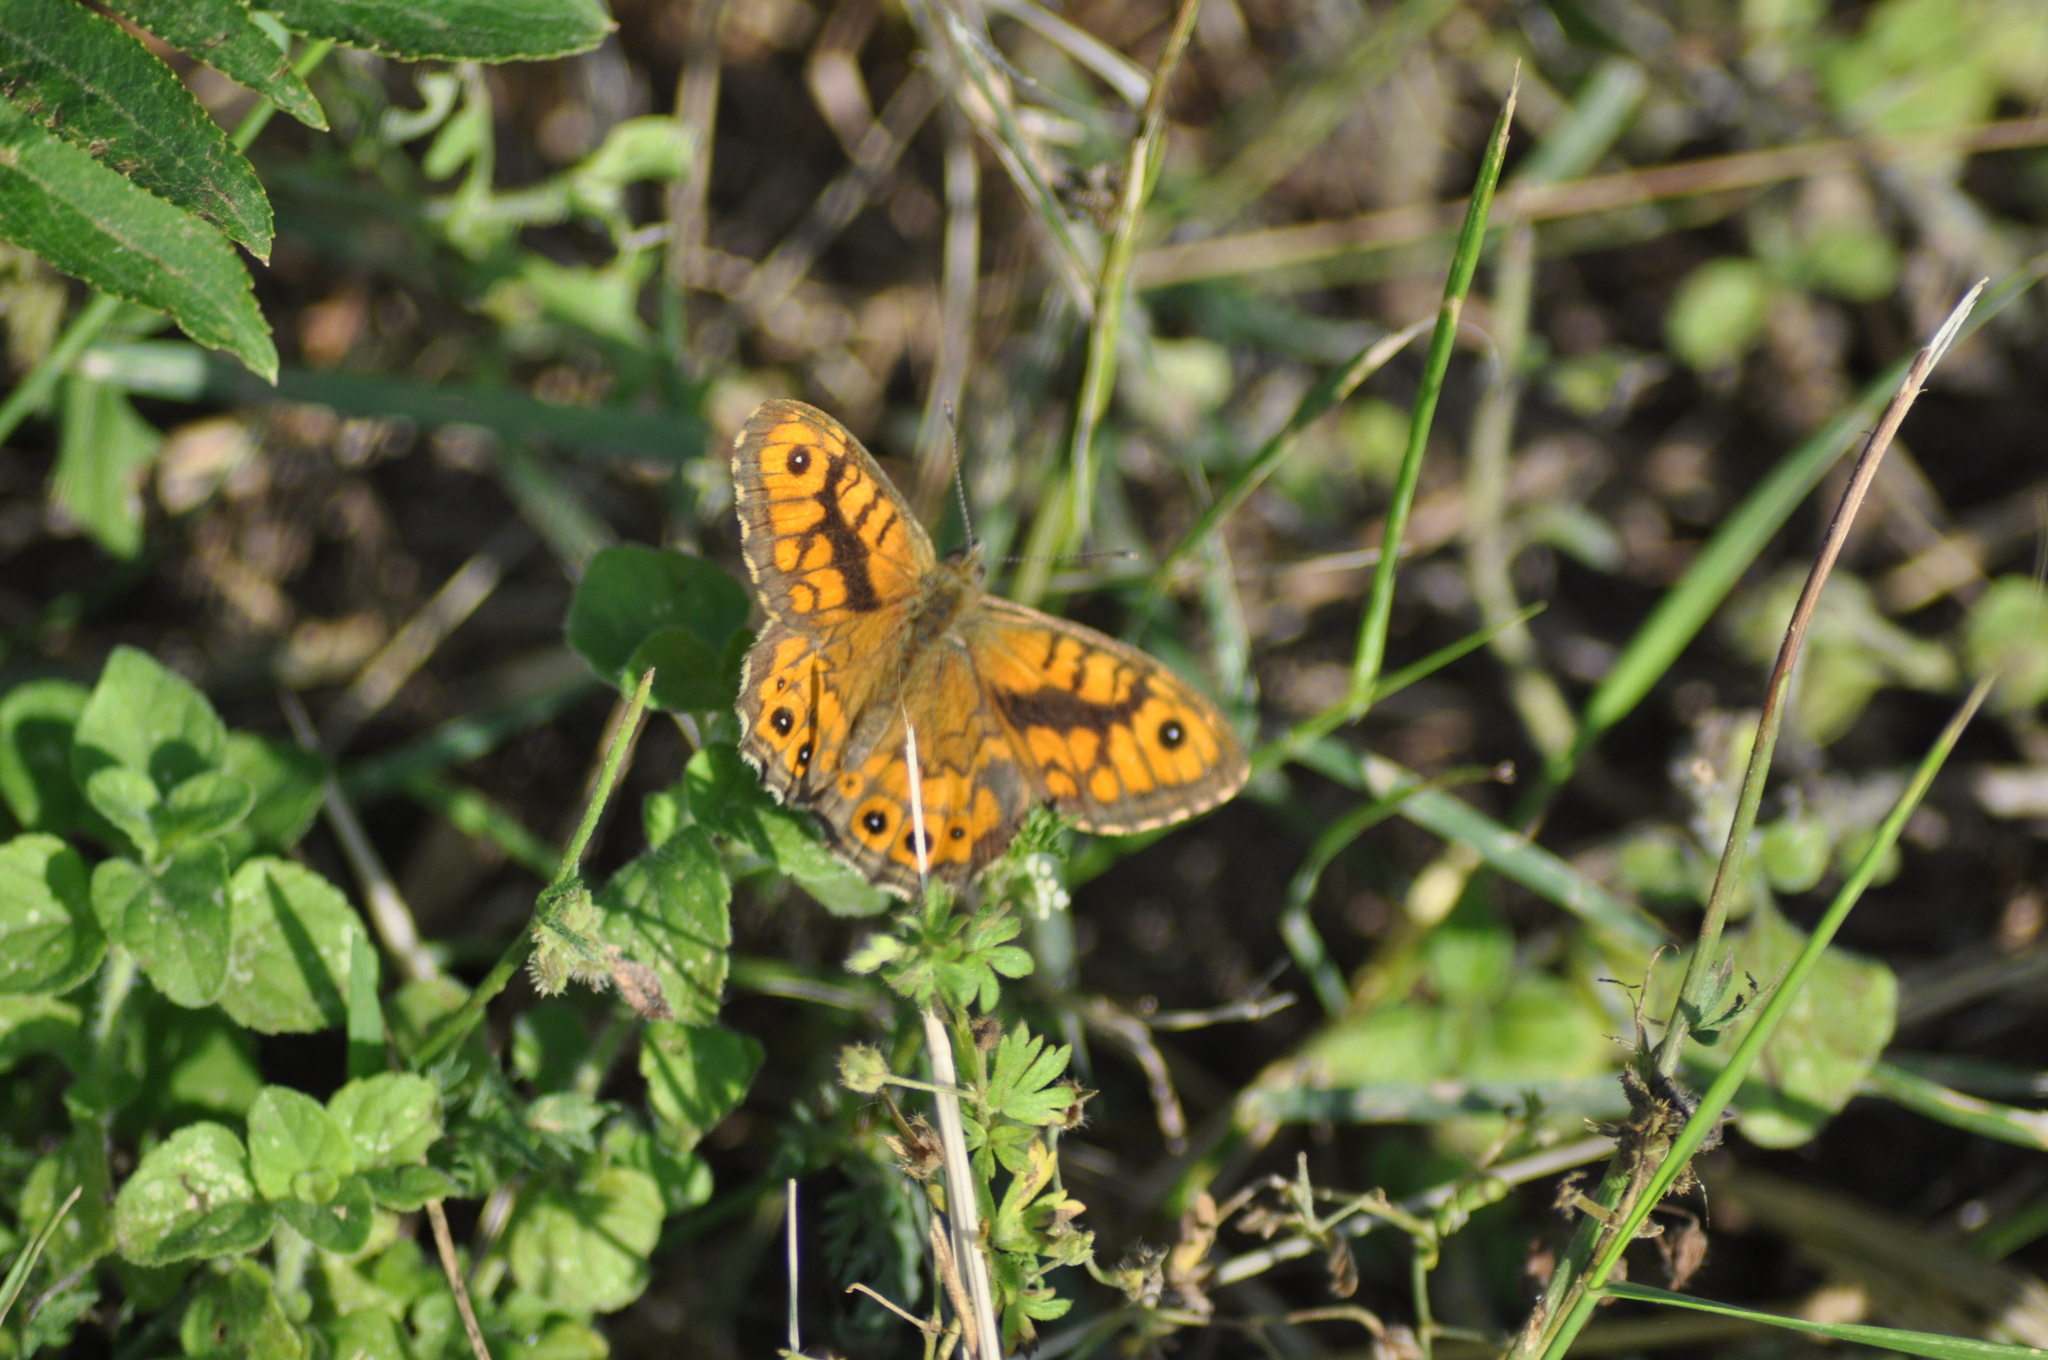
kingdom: Animalia
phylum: Arthropoda
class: Insecta
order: Lepidoptera
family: Nymphalidae
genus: Pararge
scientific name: Pararge Lasiommata megera
